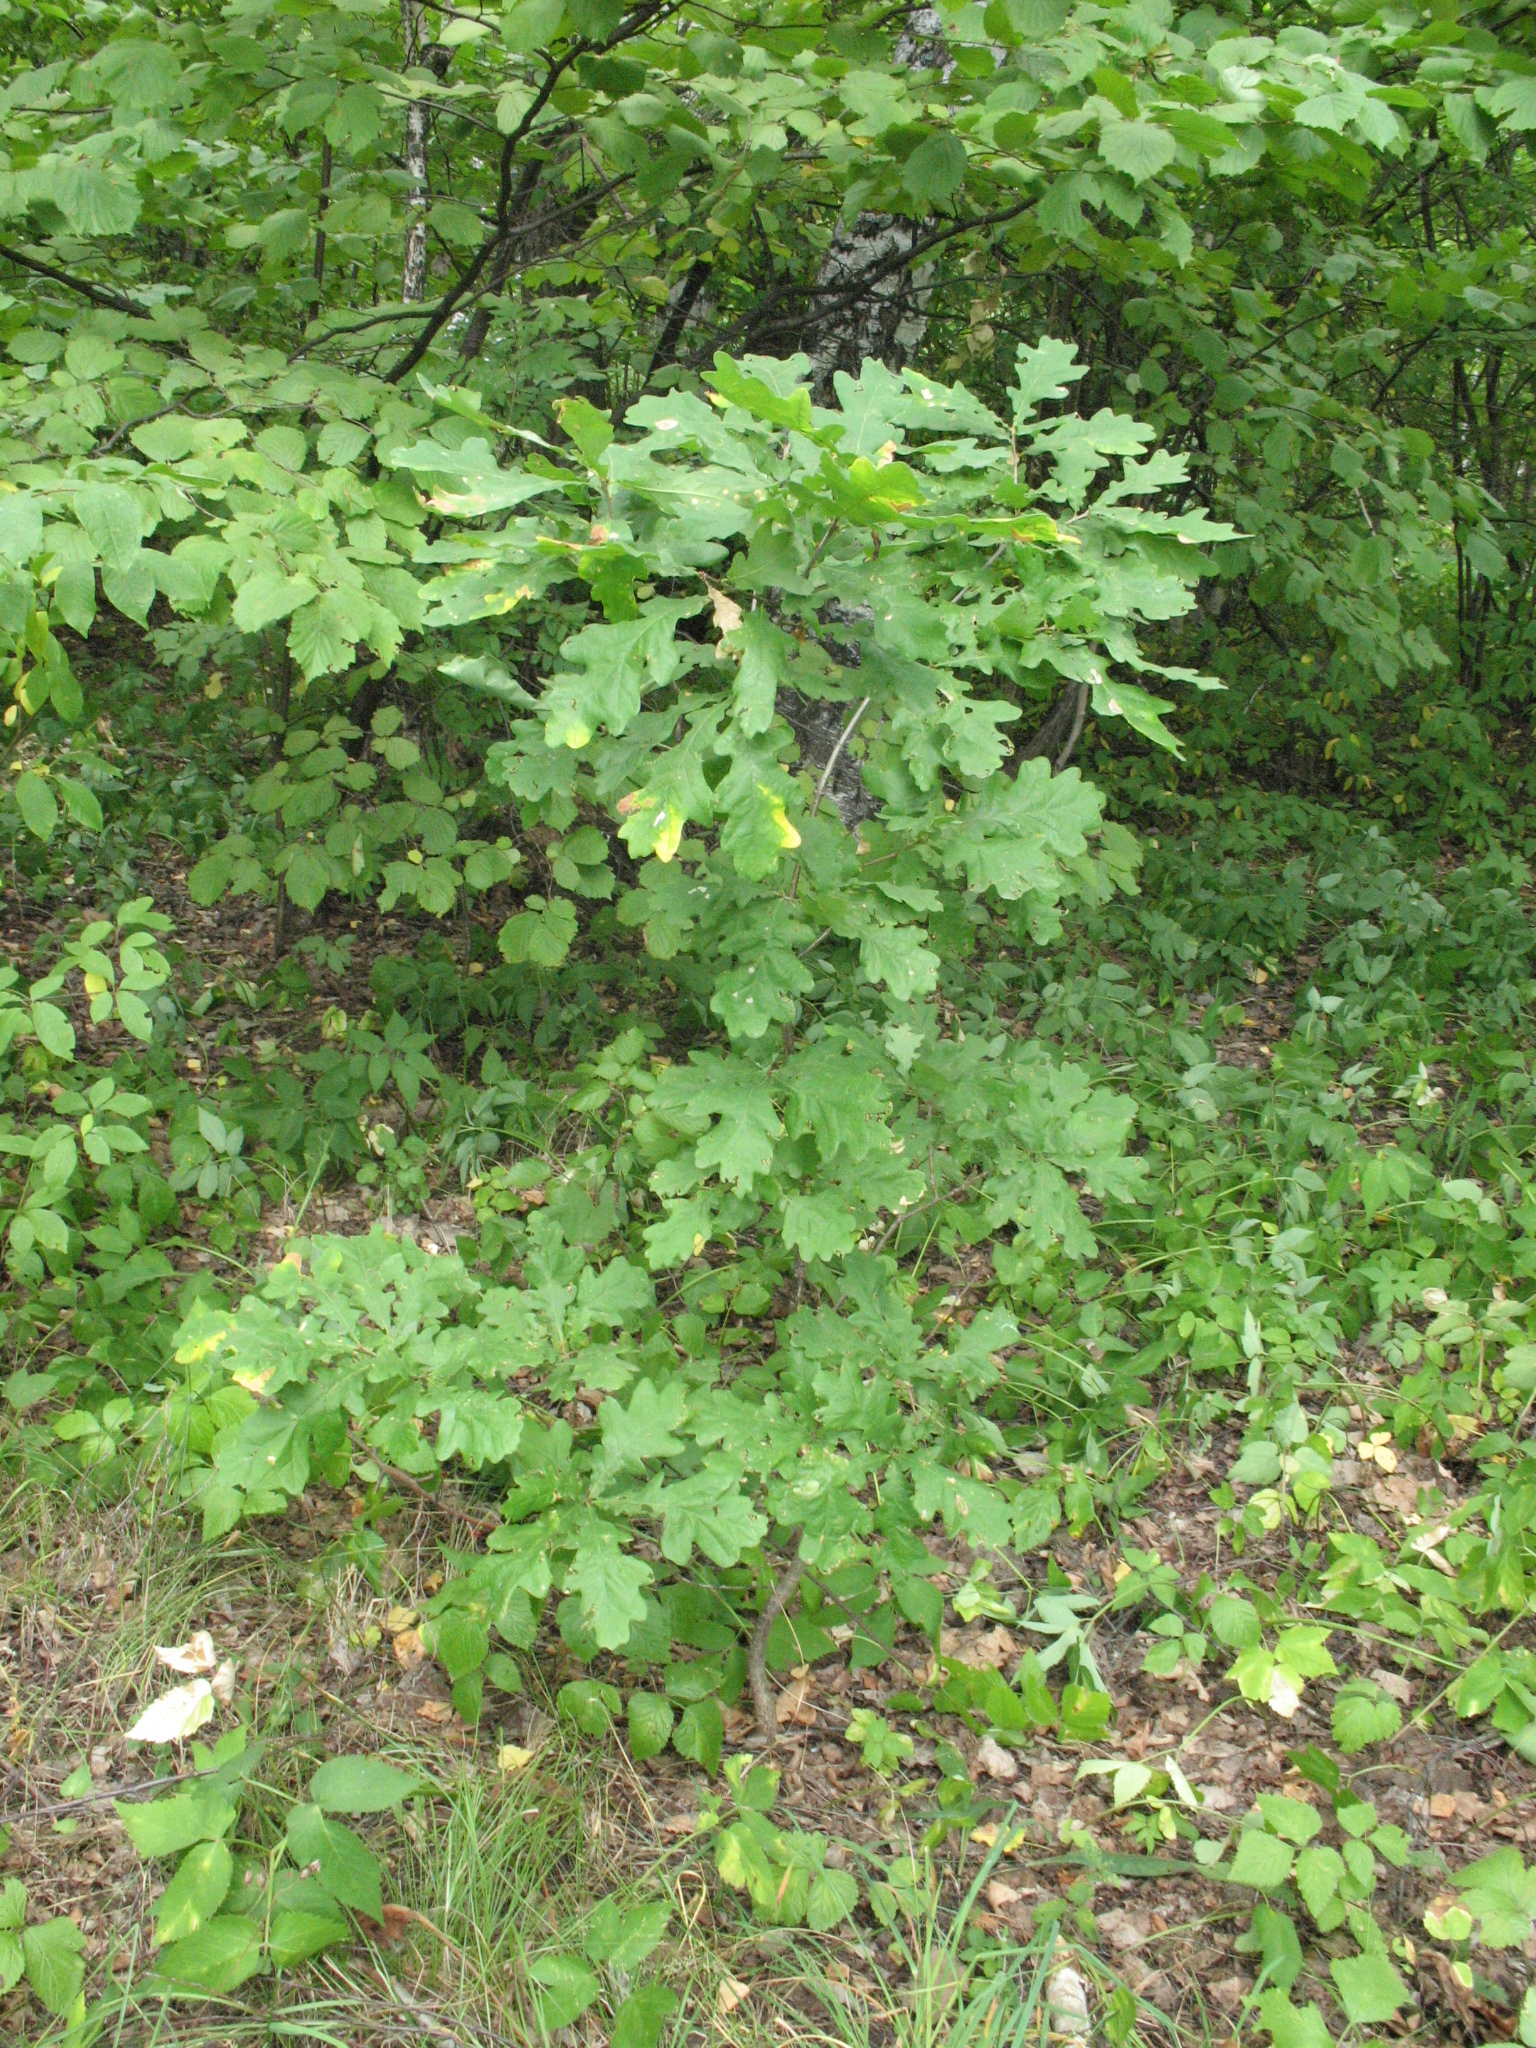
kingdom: Plantae
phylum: Tracheophyta
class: Magnoliopsida
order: Fagales
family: Fagaceae
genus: Quercus
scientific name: Quercus robur
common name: Pedunculate oak
